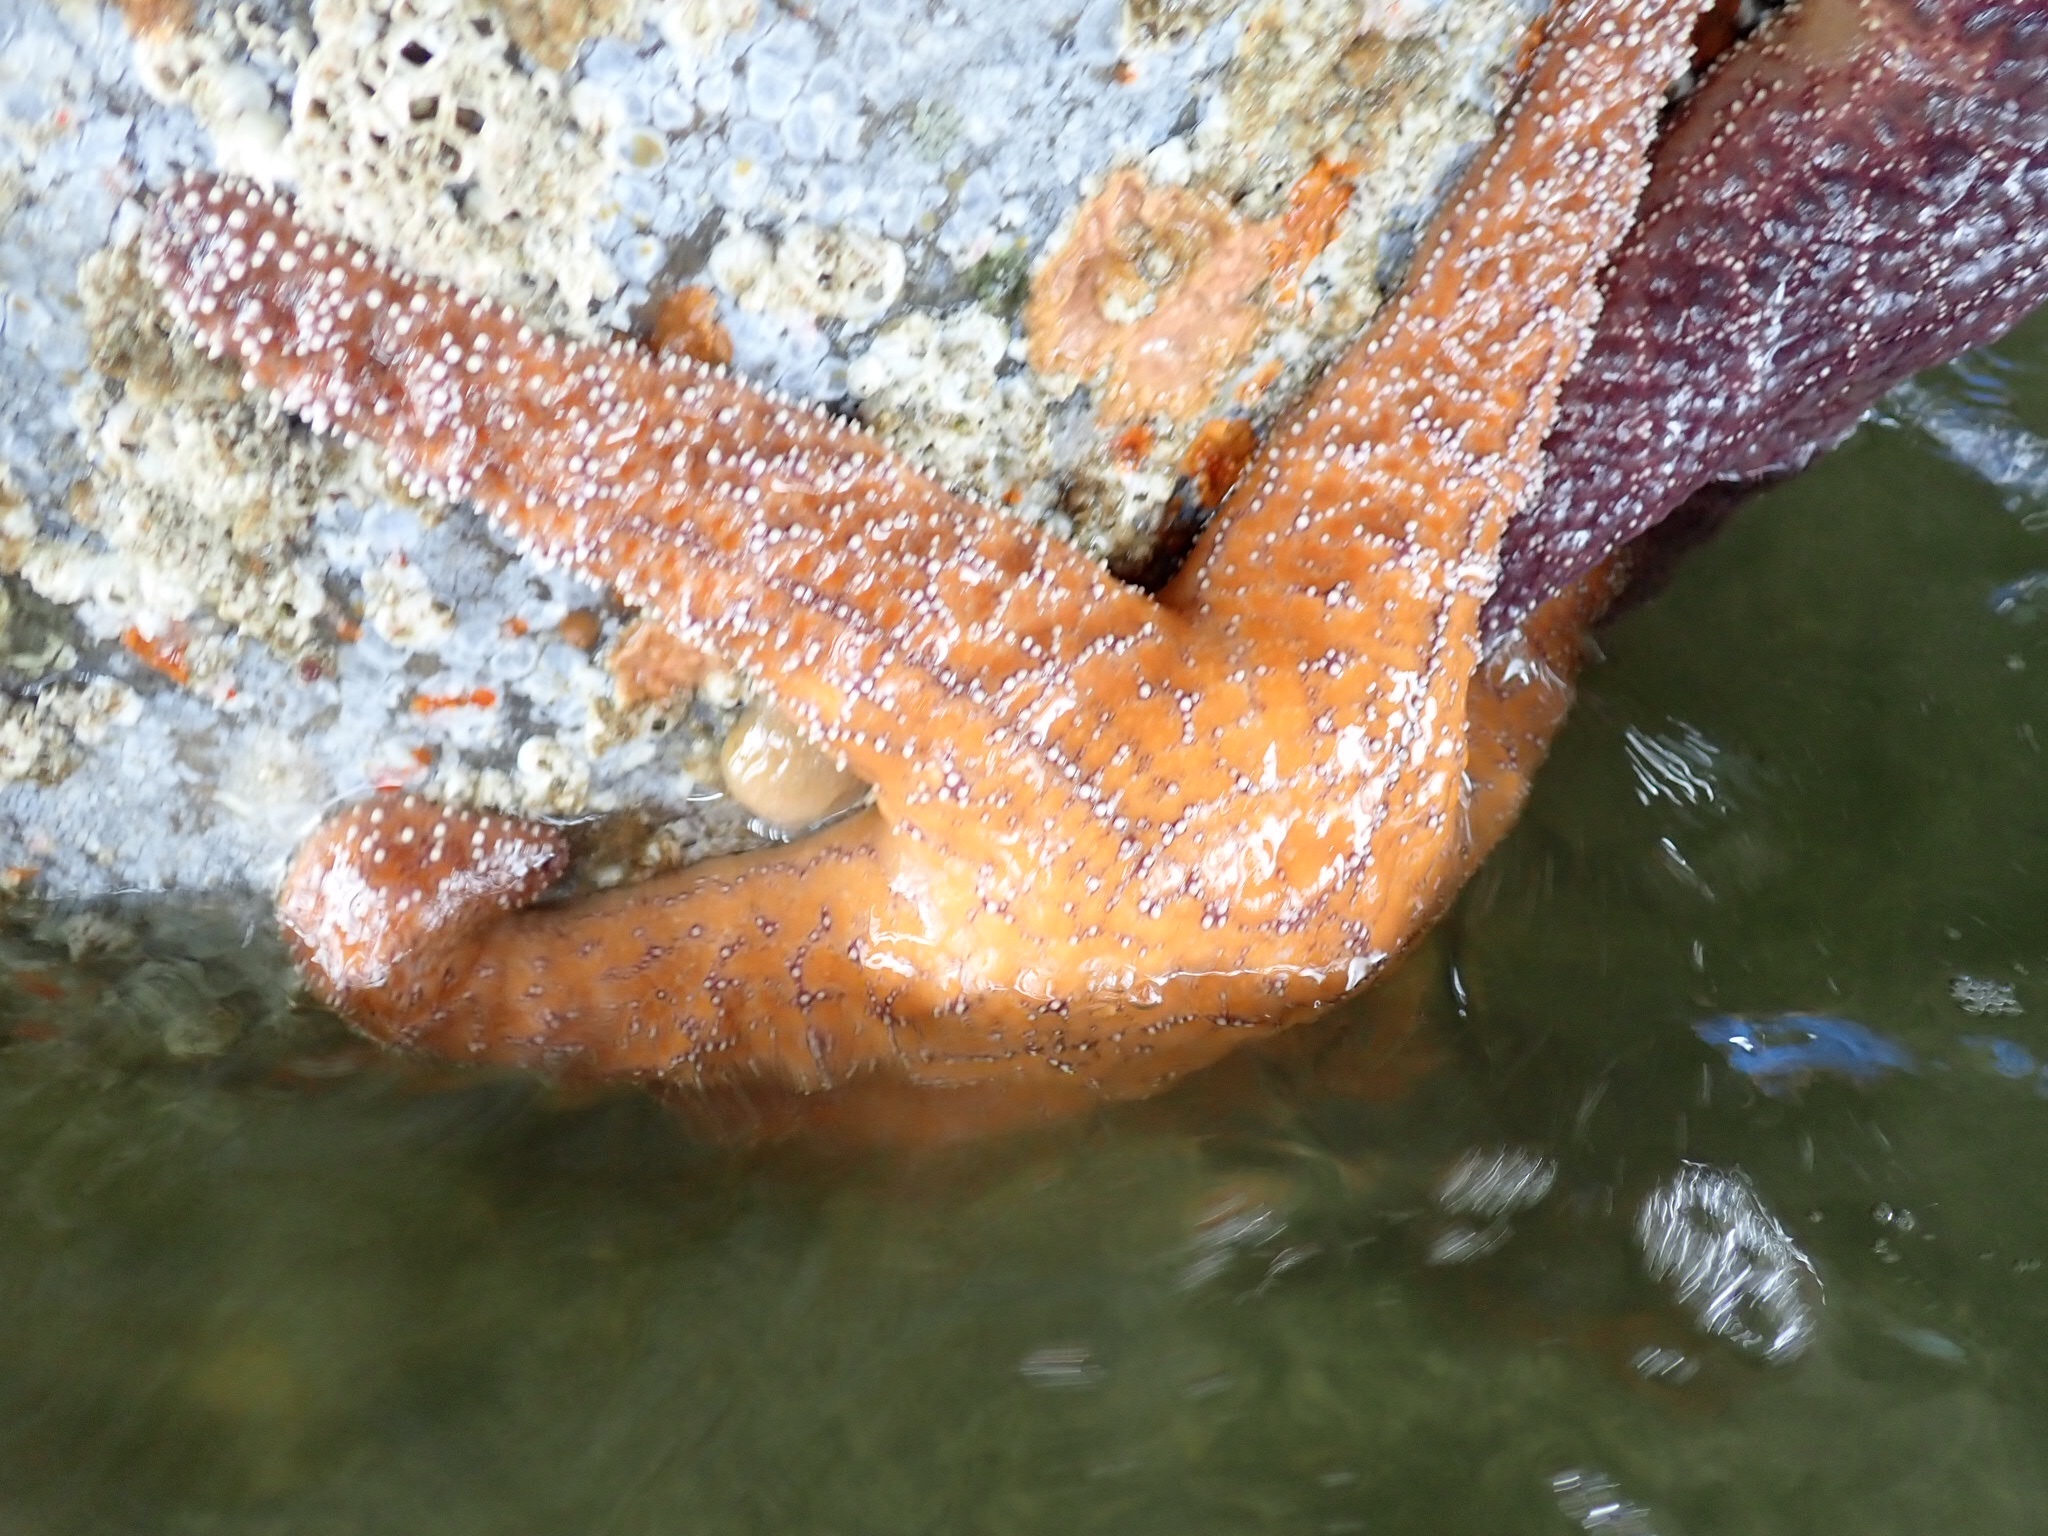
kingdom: Animalia
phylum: Echinodermata
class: Asteroidea
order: Forcipulatida
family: Asteriidae
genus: Pisaster
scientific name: Pisaster ochraceus
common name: Ochre stars
